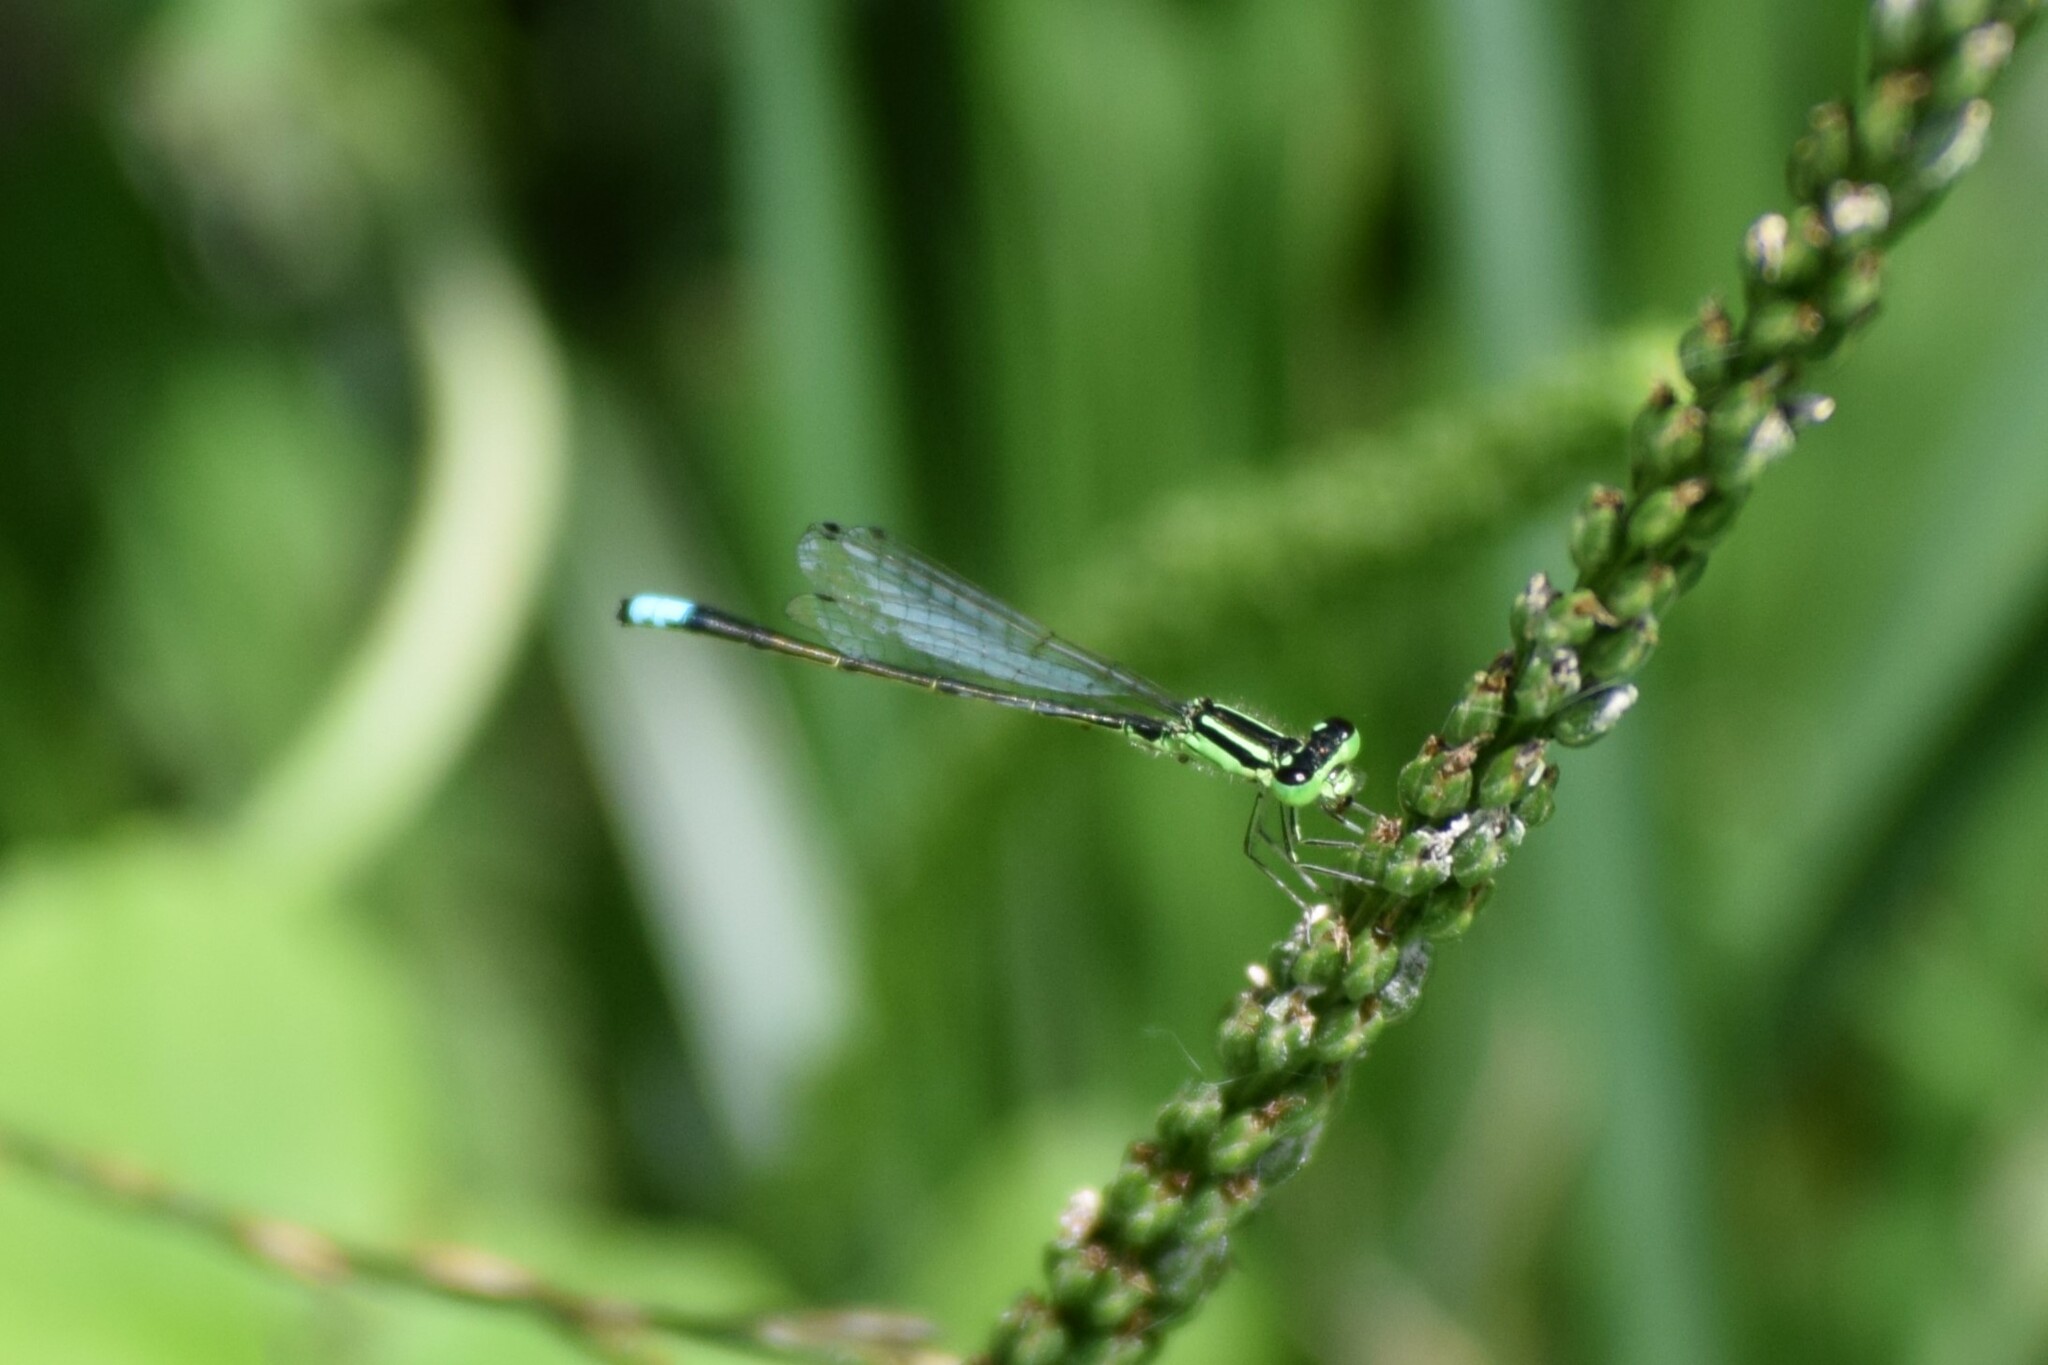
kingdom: Animalia
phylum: Arthropoda
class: Insecta
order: Odonata
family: Coenagrionidae
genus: Ischnura
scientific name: Ischnura verticalis
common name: Eastern forktail
